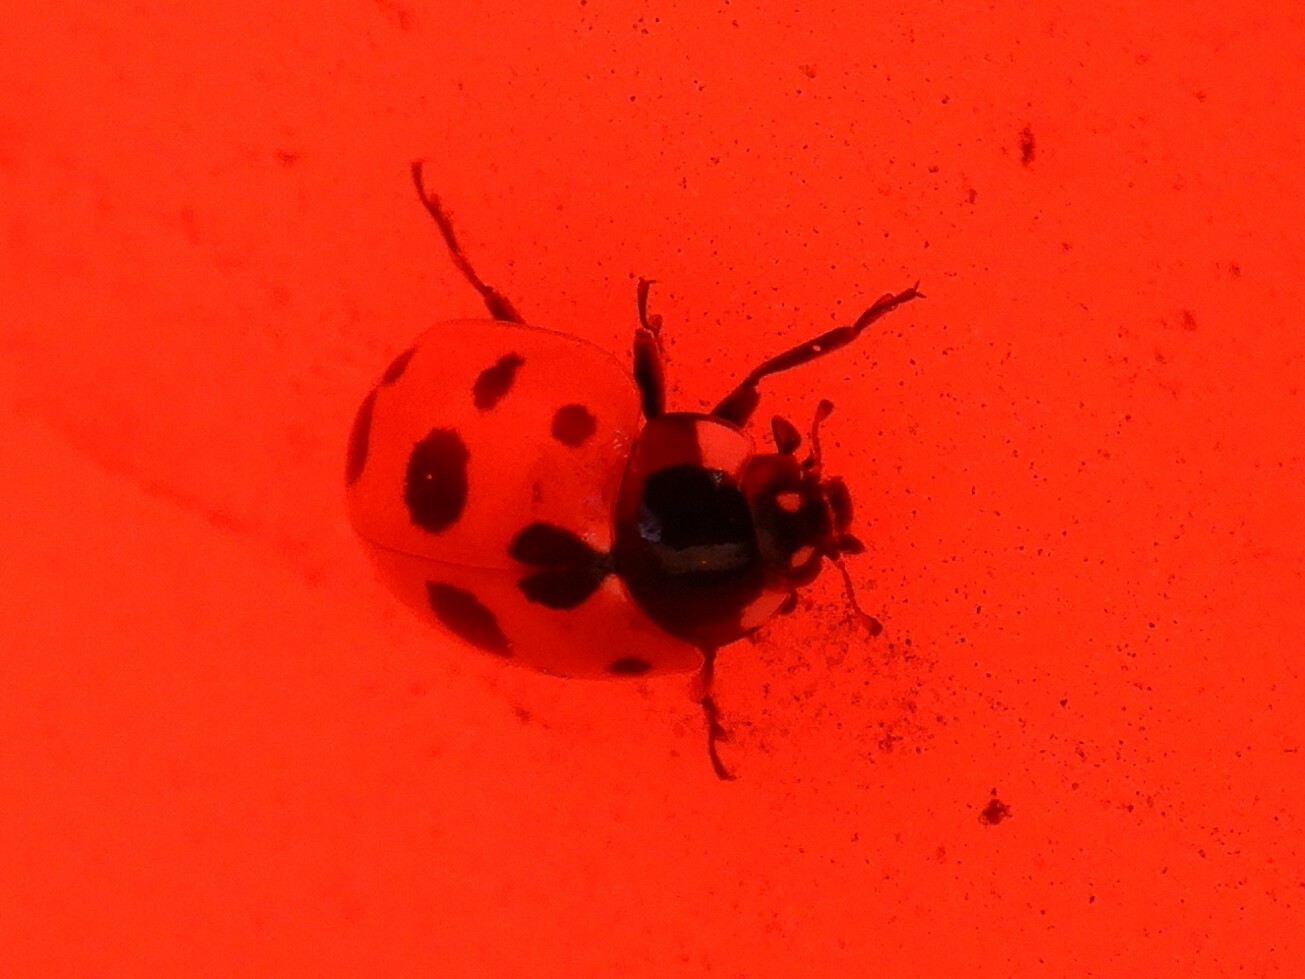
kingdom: Animalia
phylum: Arthropoda
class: Insecta
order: Coleoptera
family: Coccinellidae
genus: Coccinella
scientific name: Coccinella undecimpunctata
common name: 11-spot ladybird
